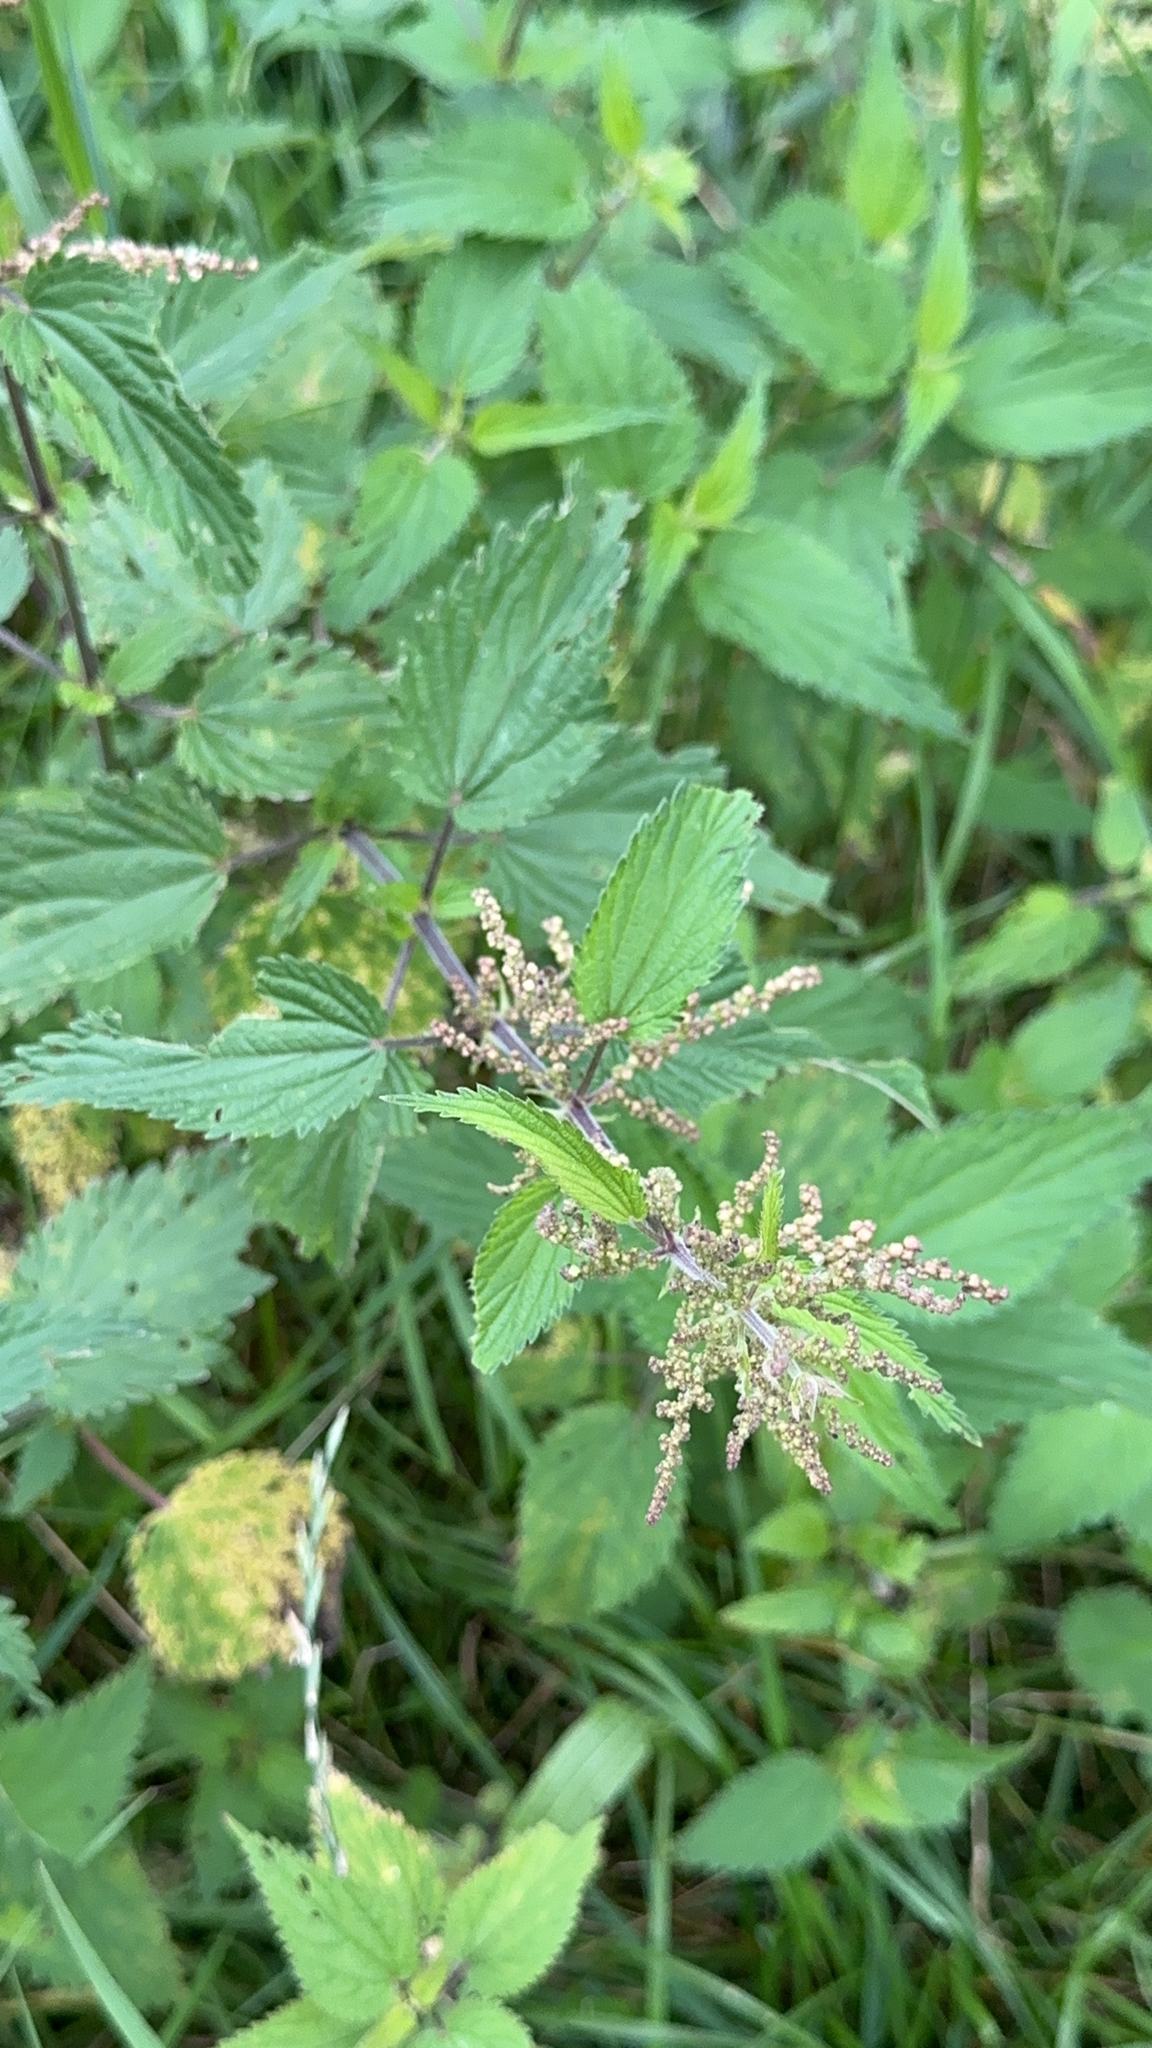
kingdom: Plantae
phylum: Tracheophyta
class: Magnoliopsida
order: Rosales
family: Urticaceae
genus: Urtica
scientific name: Urtica dioica
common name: Common nettle
